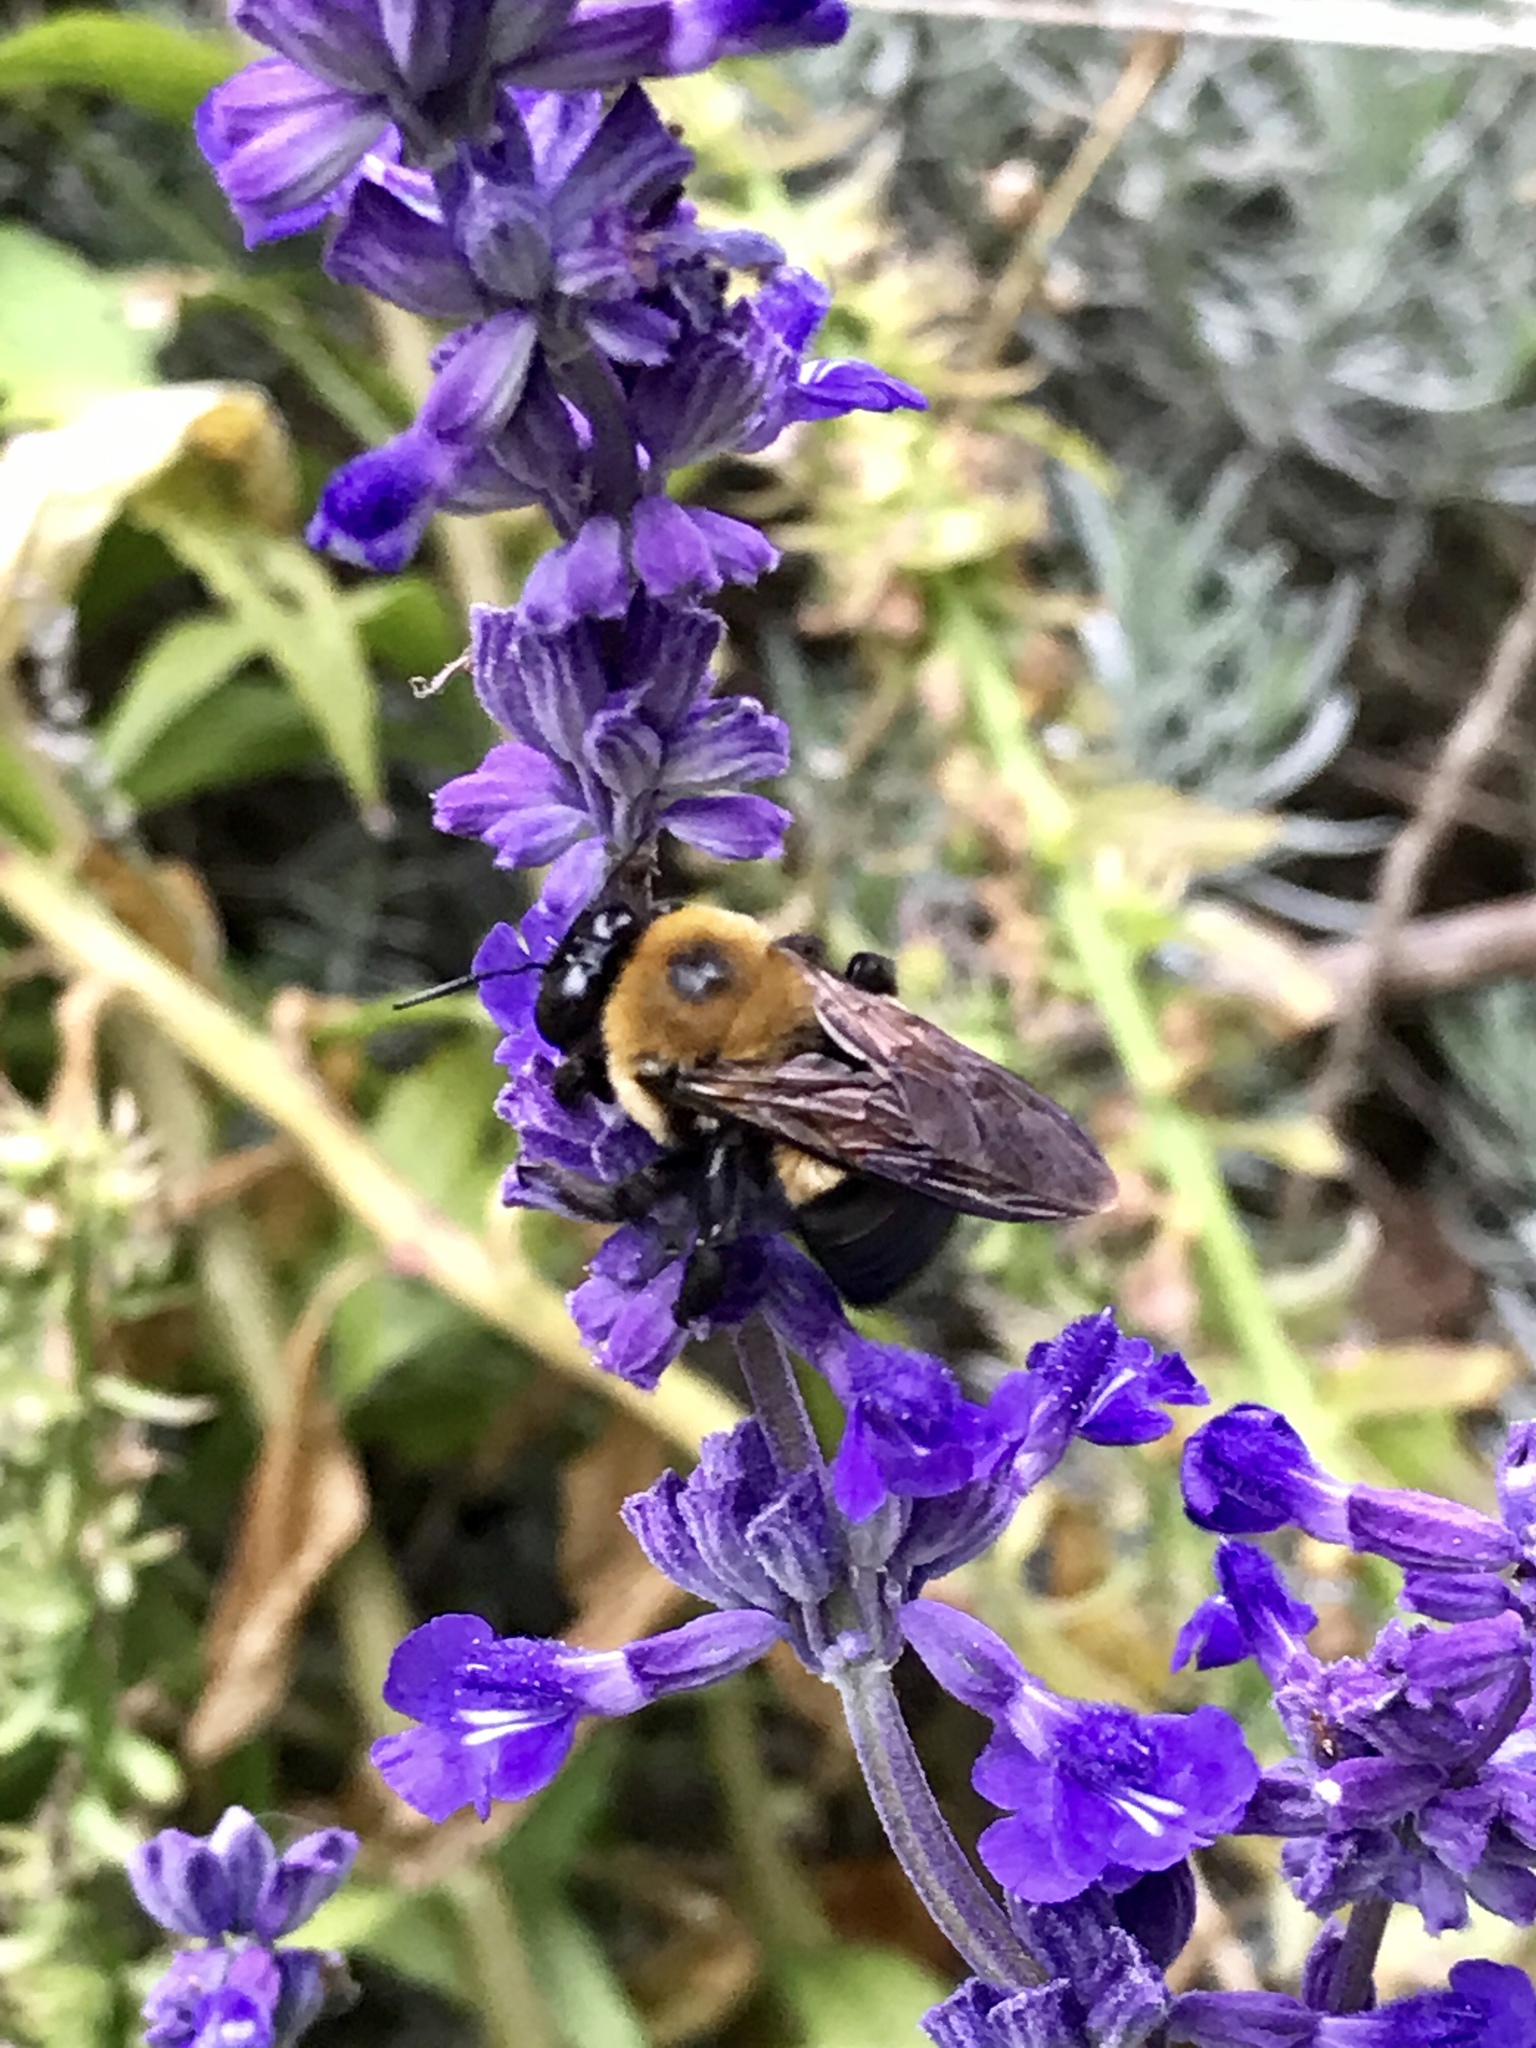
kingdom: Animalia
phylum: Arthropoda
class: Insecta
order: Hymenoptera
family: Apidae
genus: Xylocopa
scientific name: Xylocopa virginica
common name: Carpenter bee
